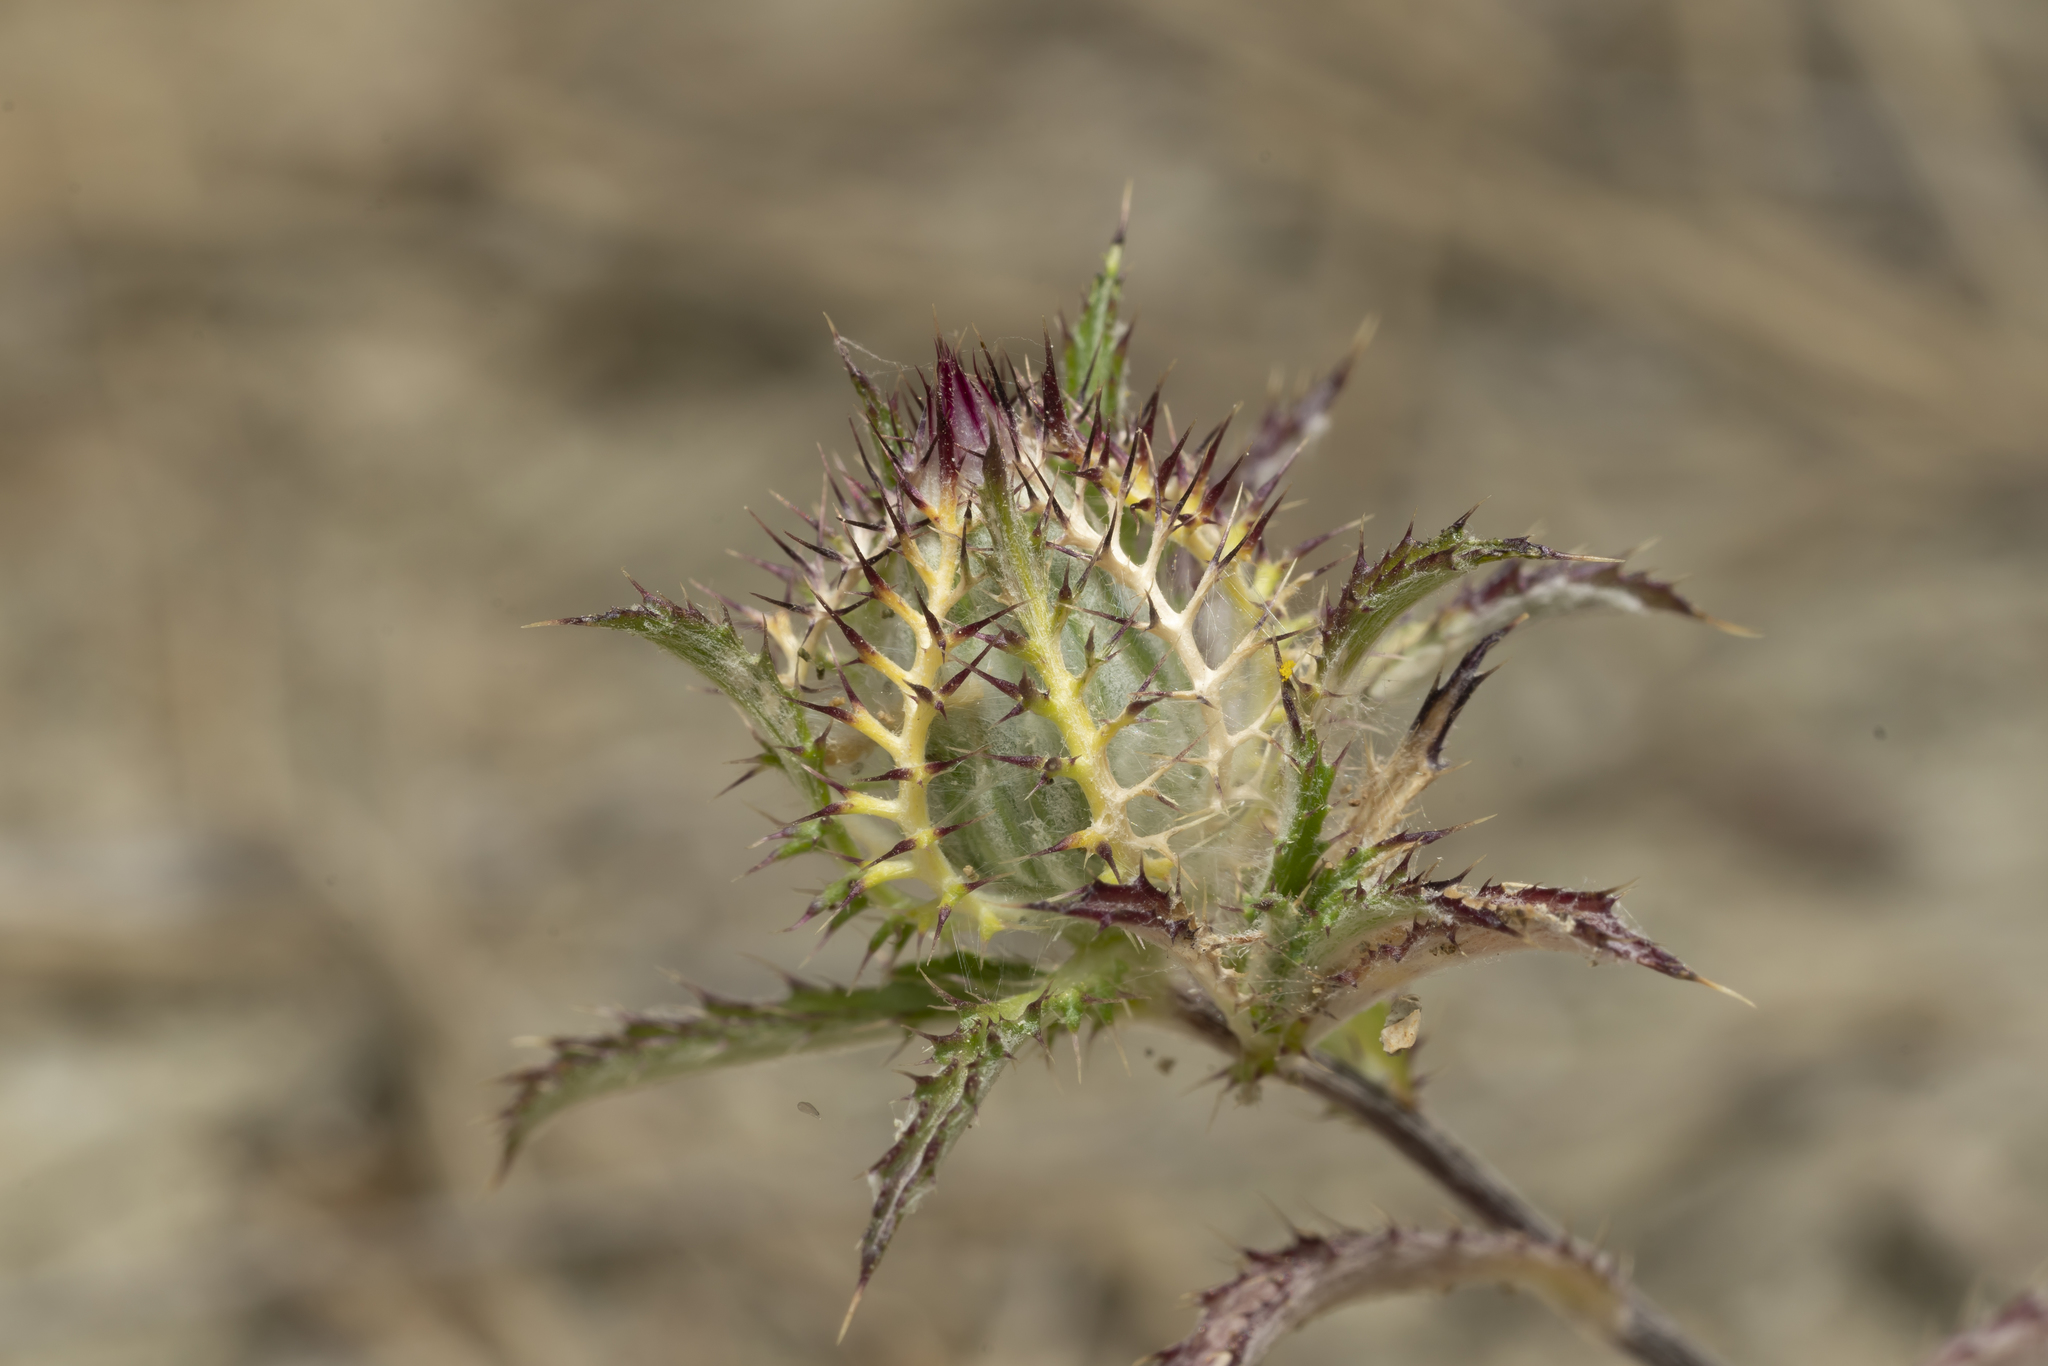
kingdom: Plantae
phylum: Tracheophyta
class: Magnoliopsida
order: Asterales
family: Asteraceae
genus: Atractylis
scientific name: Atractylis cancellata
